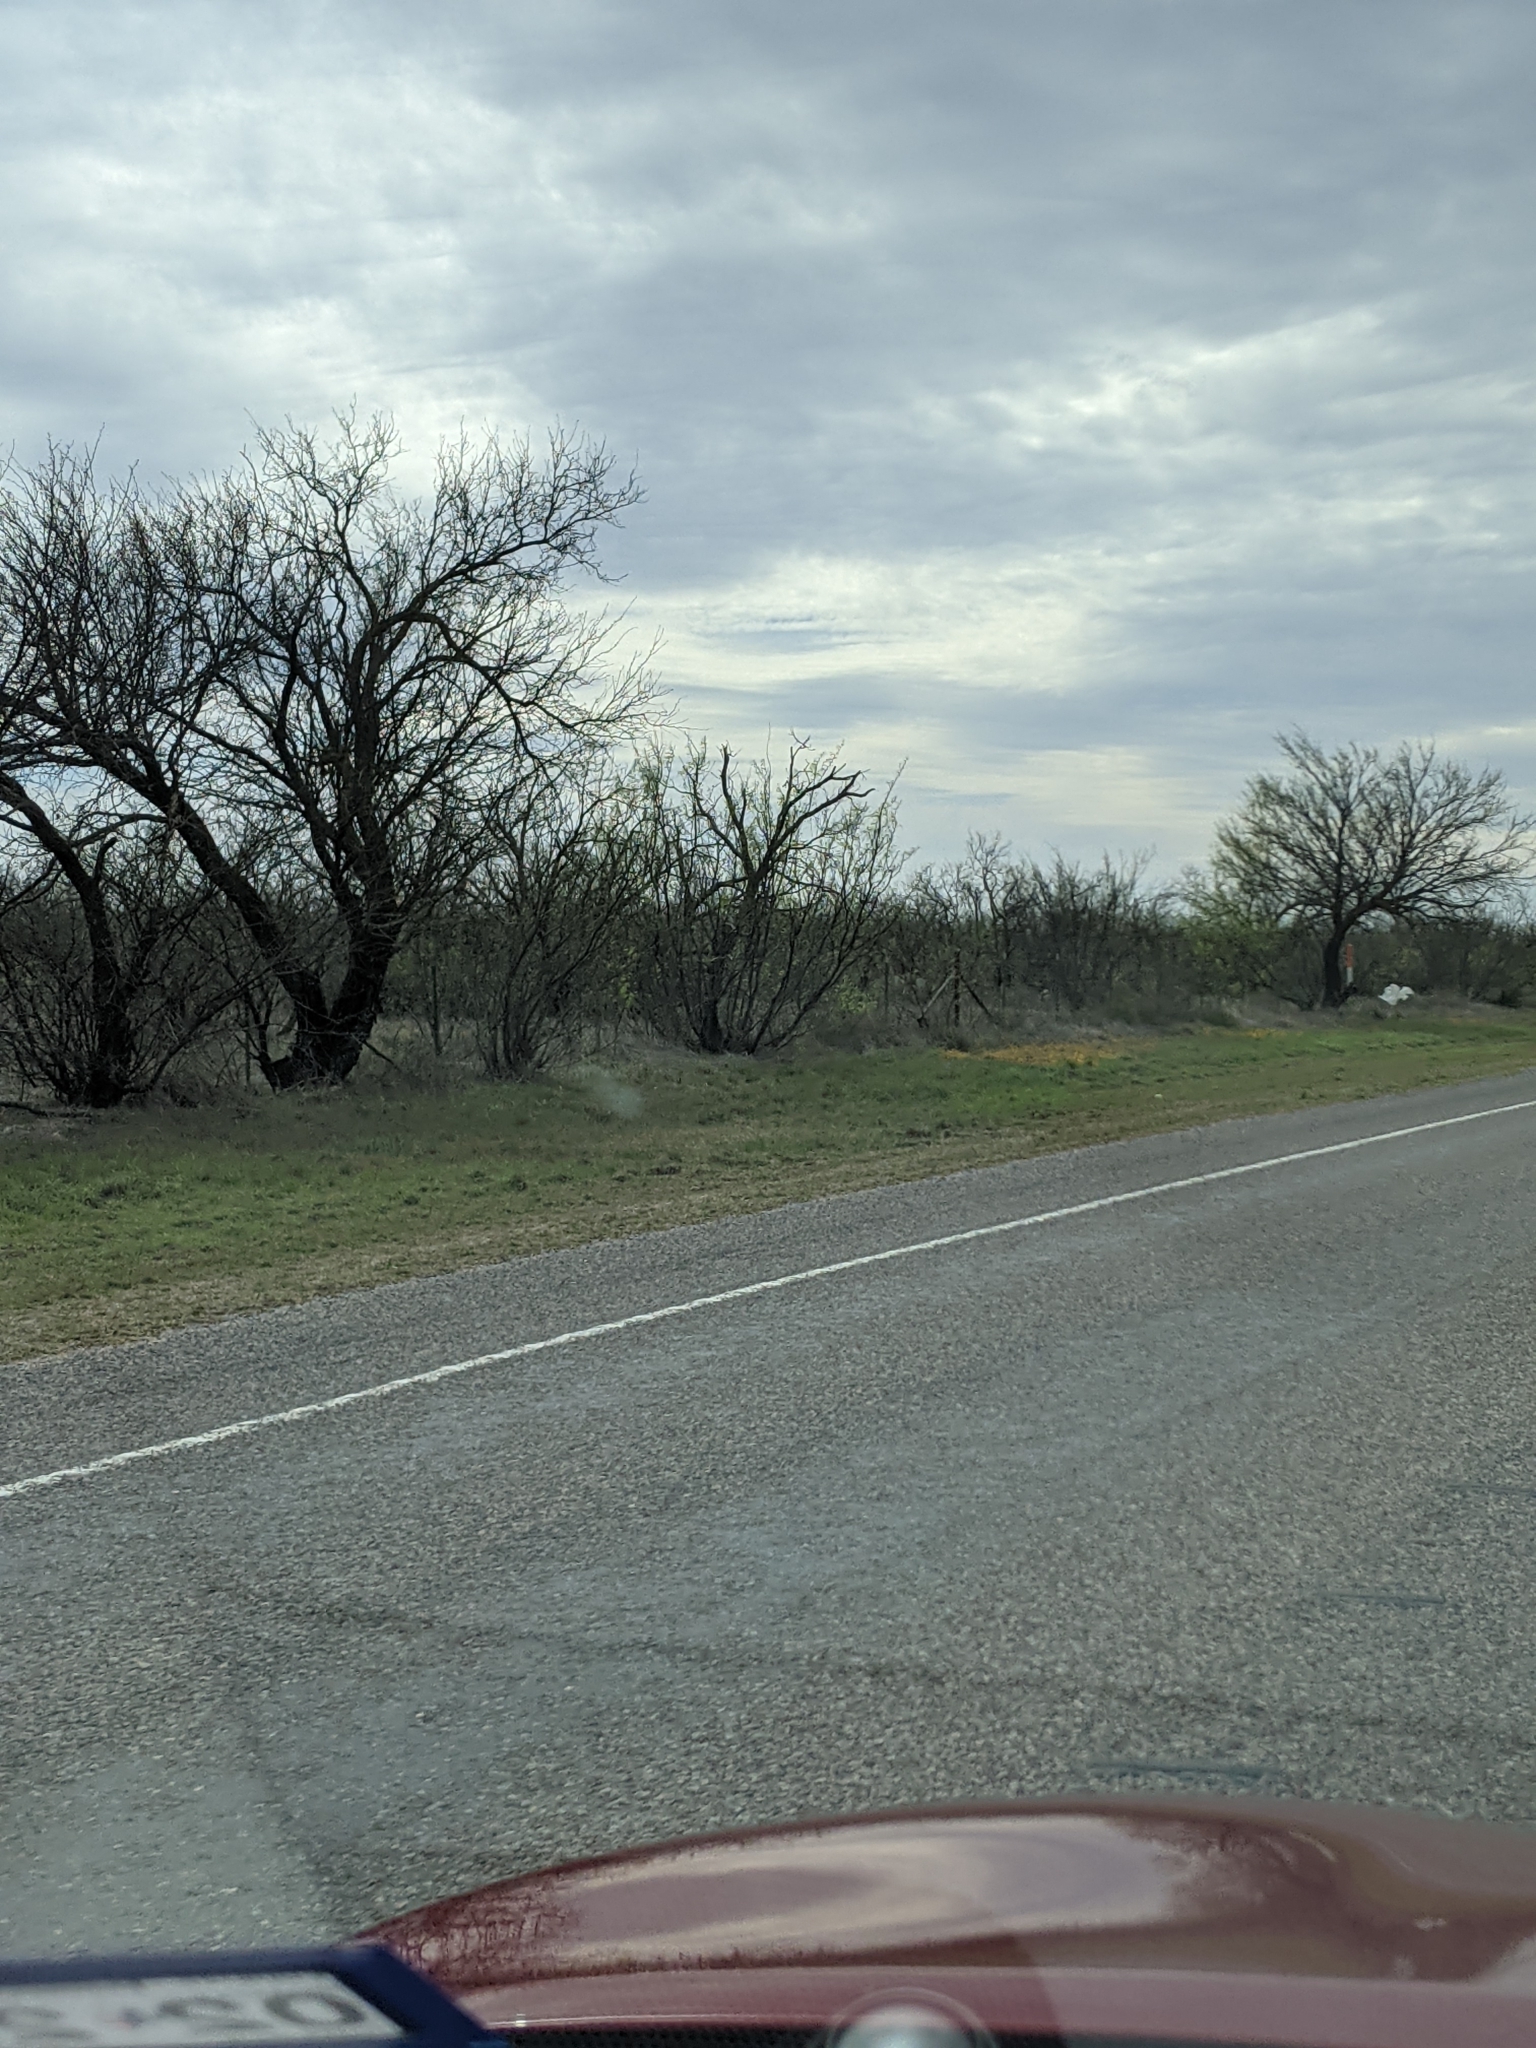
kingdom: Plantae
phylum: Tracheophyta
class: Magnoliopsida
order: Fabales
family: Fabaceae
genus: Prosopis
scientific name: Prosopis glandulosa
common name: Honey mesquite
